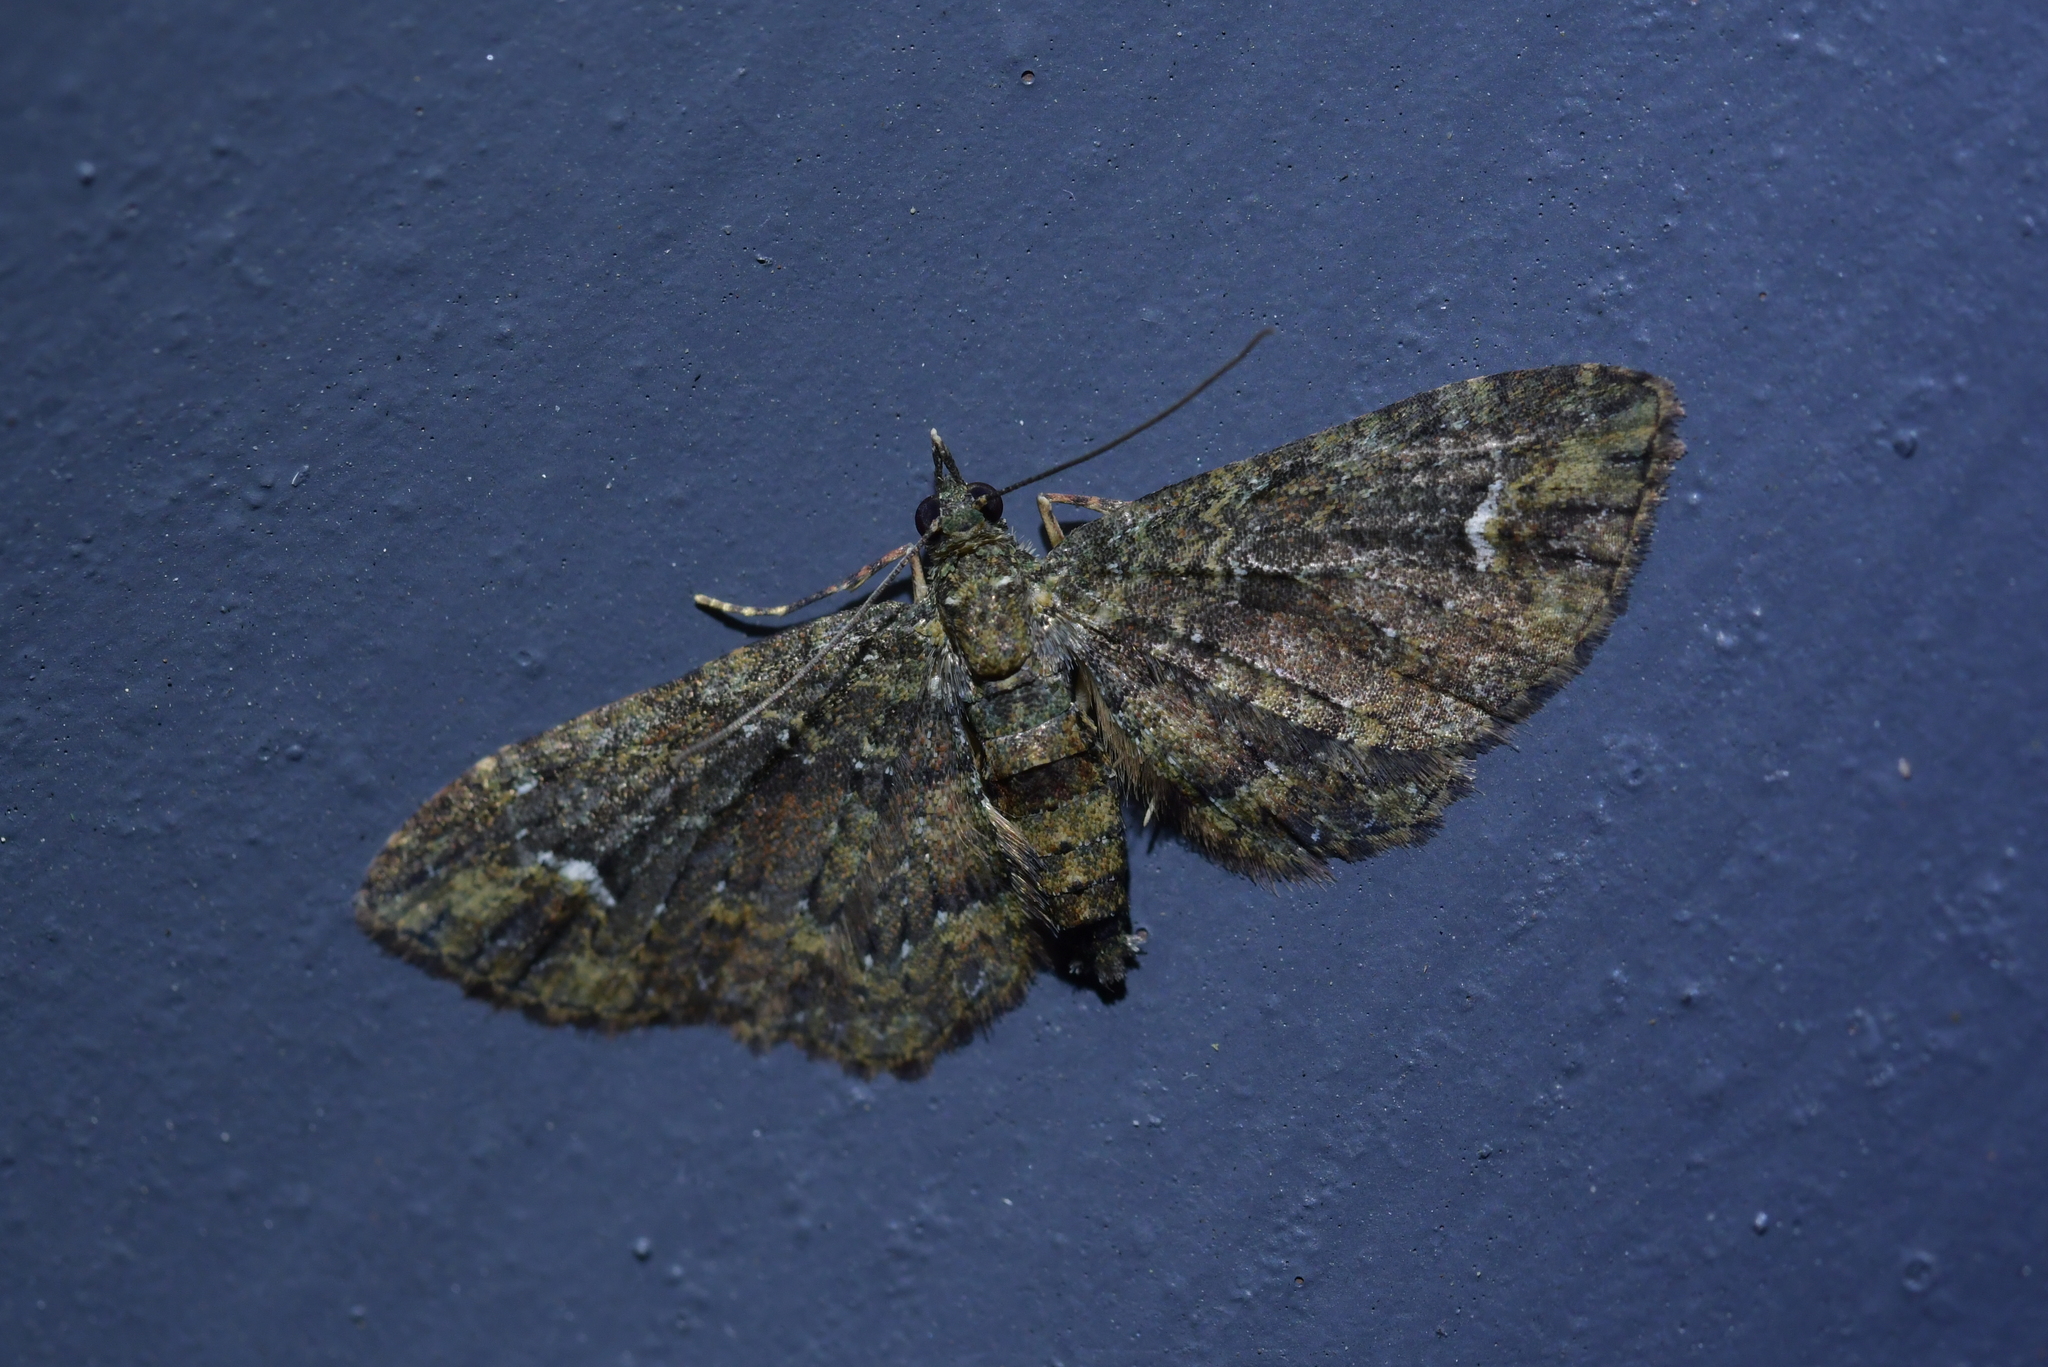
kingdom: Animalia
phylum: Arthropoda
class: Insecta
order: Lepidoptera
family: Geometridae
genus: Pasiphilodes
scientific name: Pasiphilodes testulata
